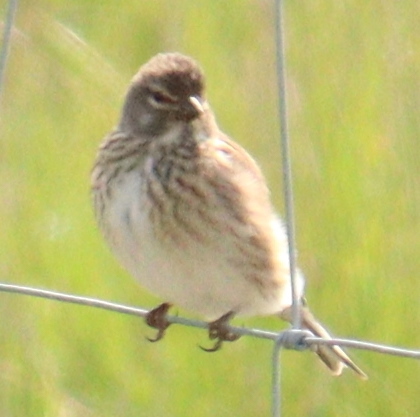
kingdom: Animalia
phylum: Chordata
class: Aves
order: Passeriformes
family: Fringillidae
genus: Linaria
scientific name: Linaria cannabina
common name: Common linnet
